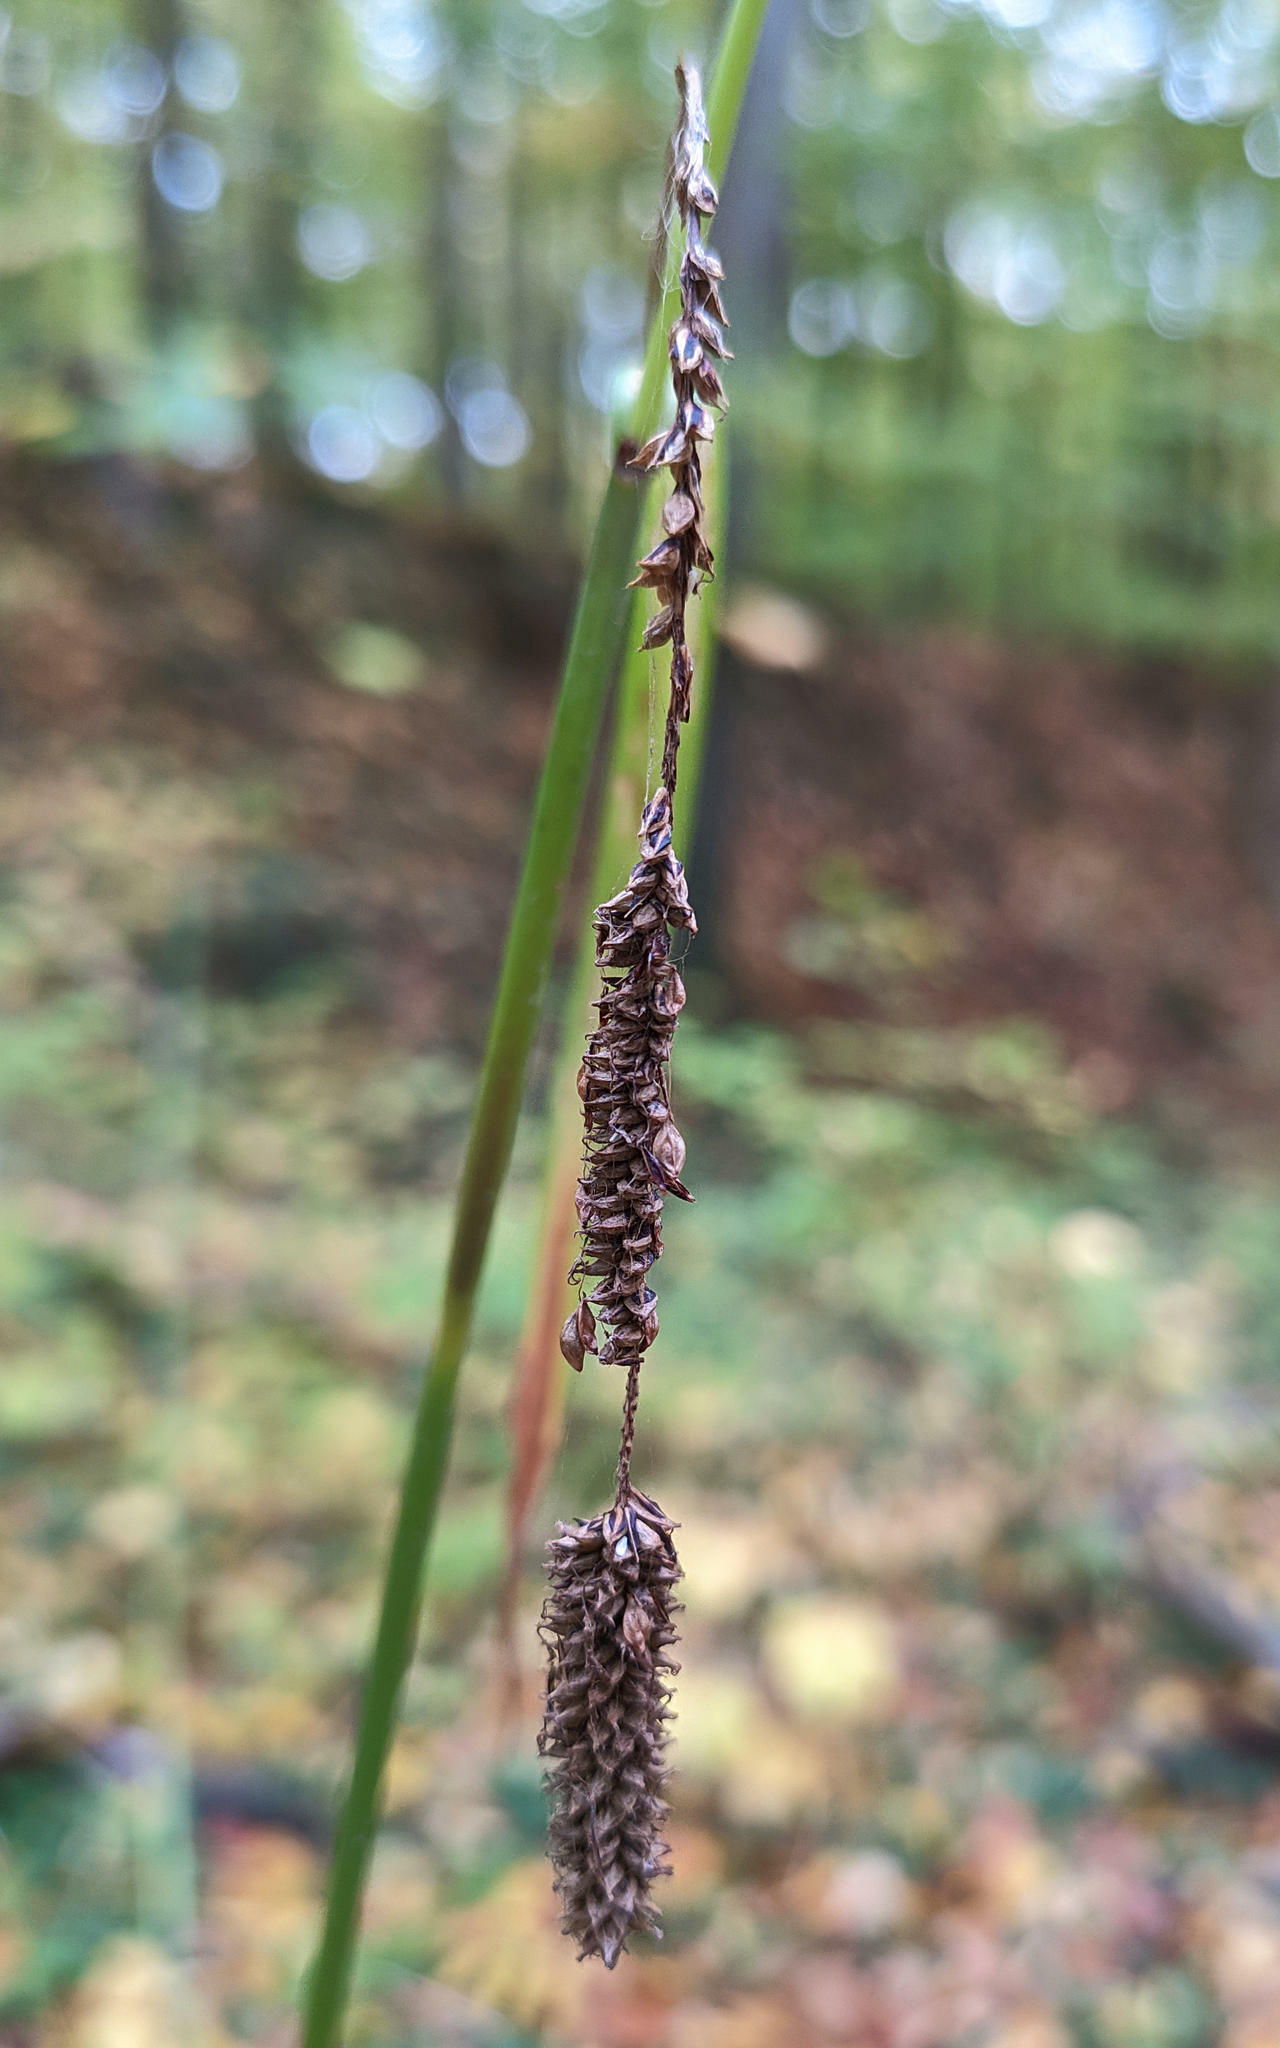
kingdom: Plantae
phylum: Tracheophyta
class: Liliopsida
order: Poales
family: Cyperaceae
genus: Carex
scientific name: Carex pendula
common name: Pendulous sedge
